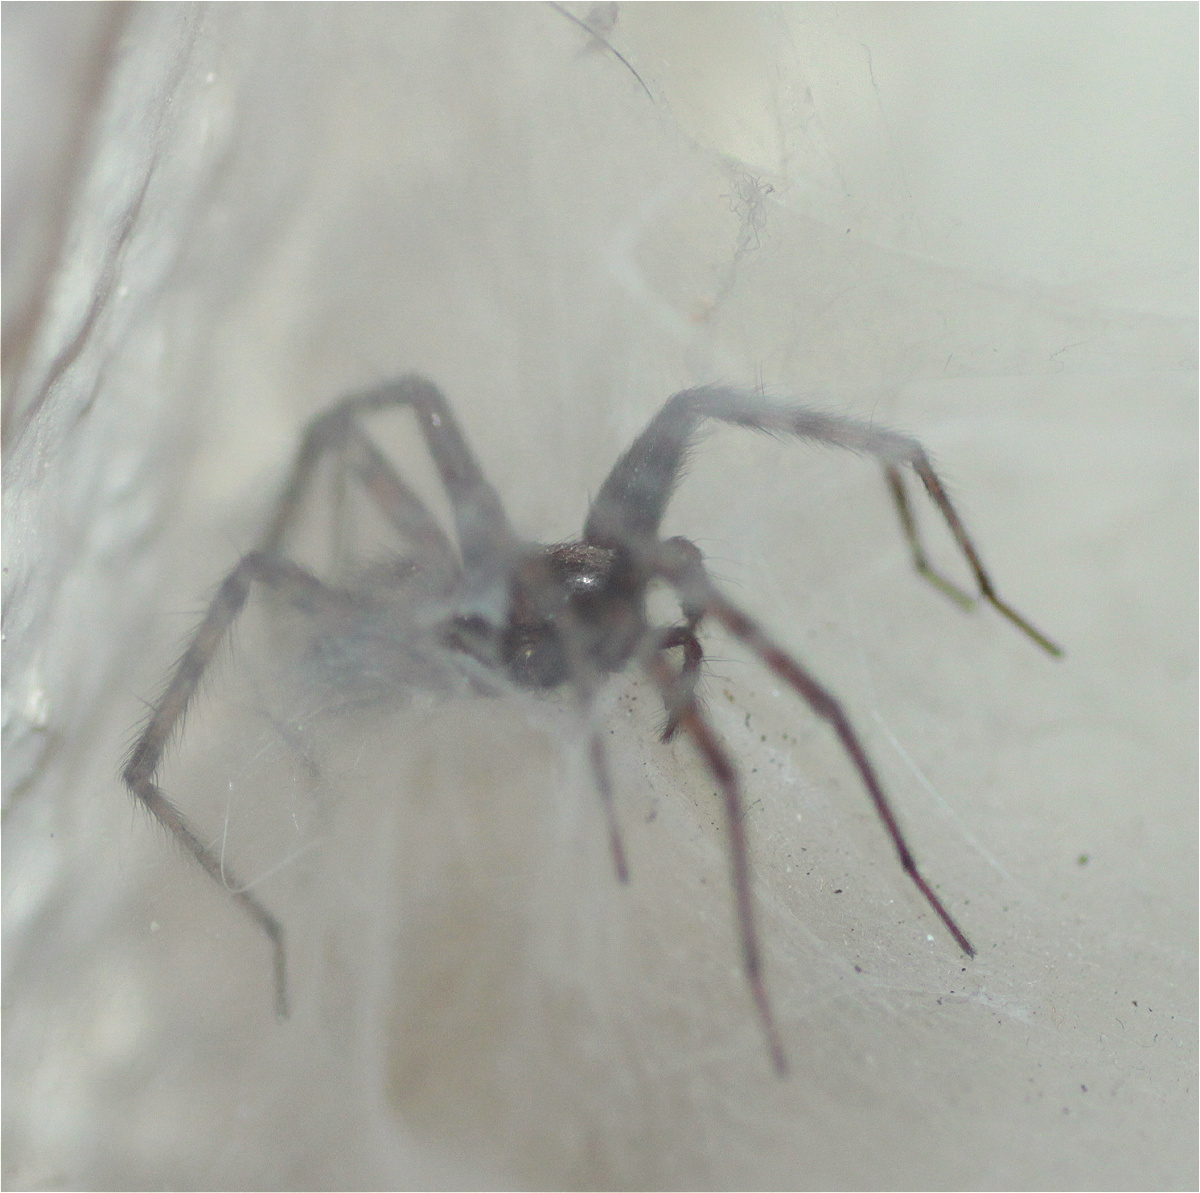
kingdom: Animalia
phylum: Arthropoda
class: Arachnida
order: Araneae
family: Agelenidae
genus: Tegenaria
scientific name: Tegenaria domestica
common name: Barn funnel weaver
